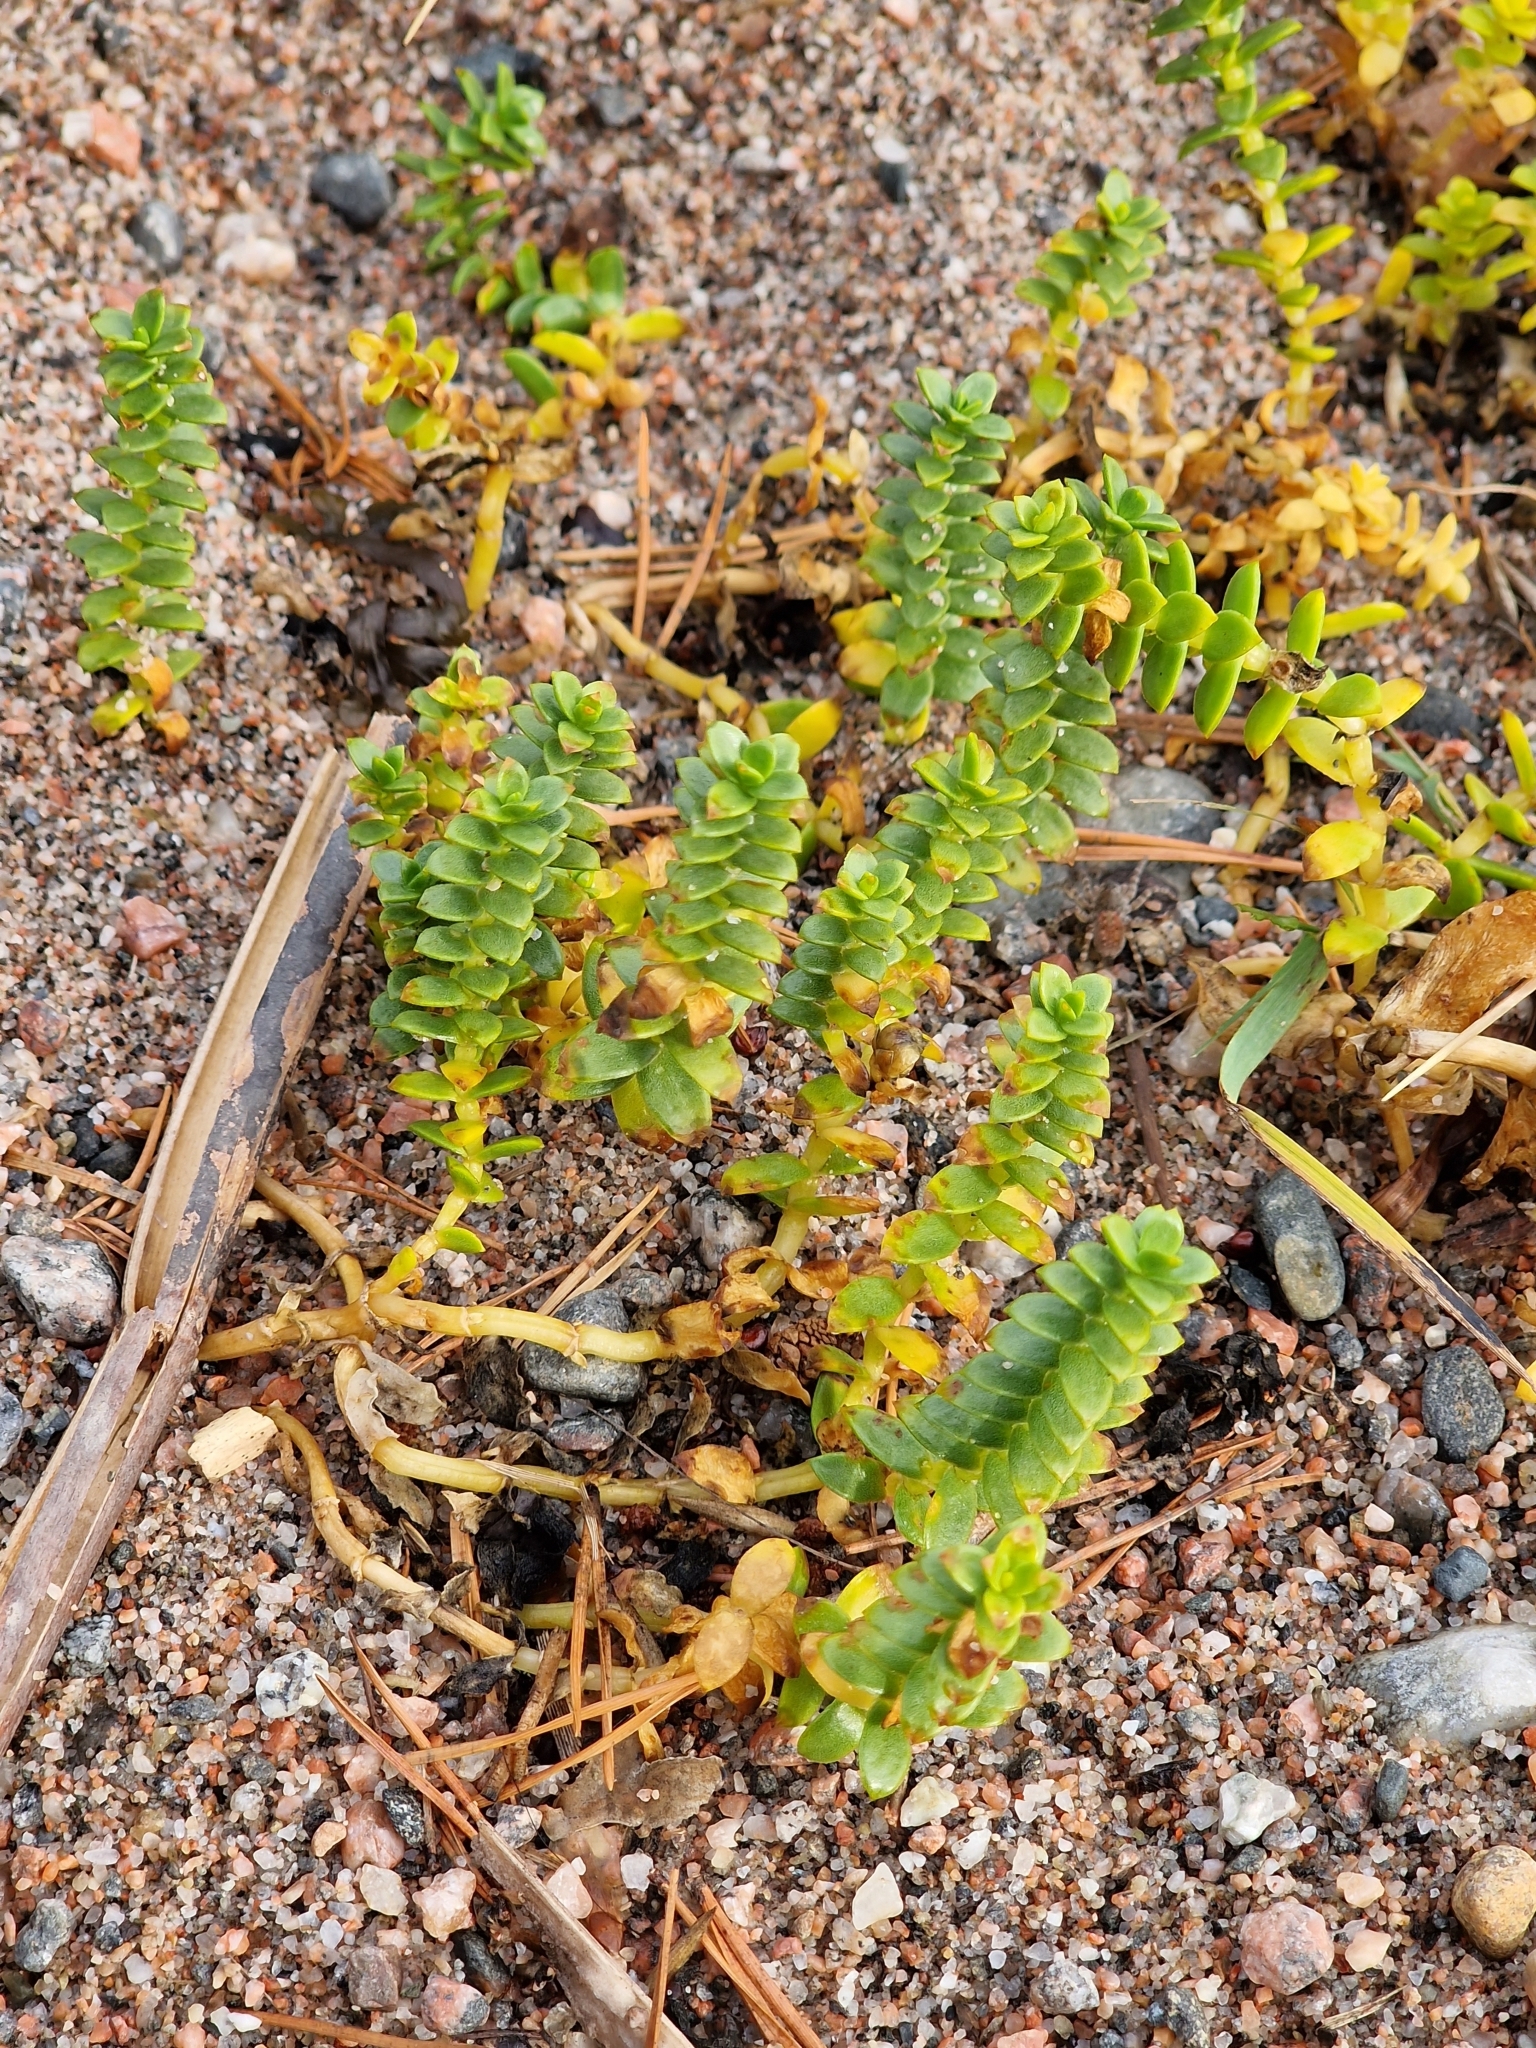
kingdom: Plantae
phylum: Tracheophyta
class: Magnoliopsida
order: Caryophyllales
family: Caryophyllaceae
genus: Honckenya
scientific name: Honckenya peploides
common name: Sea sandwort
